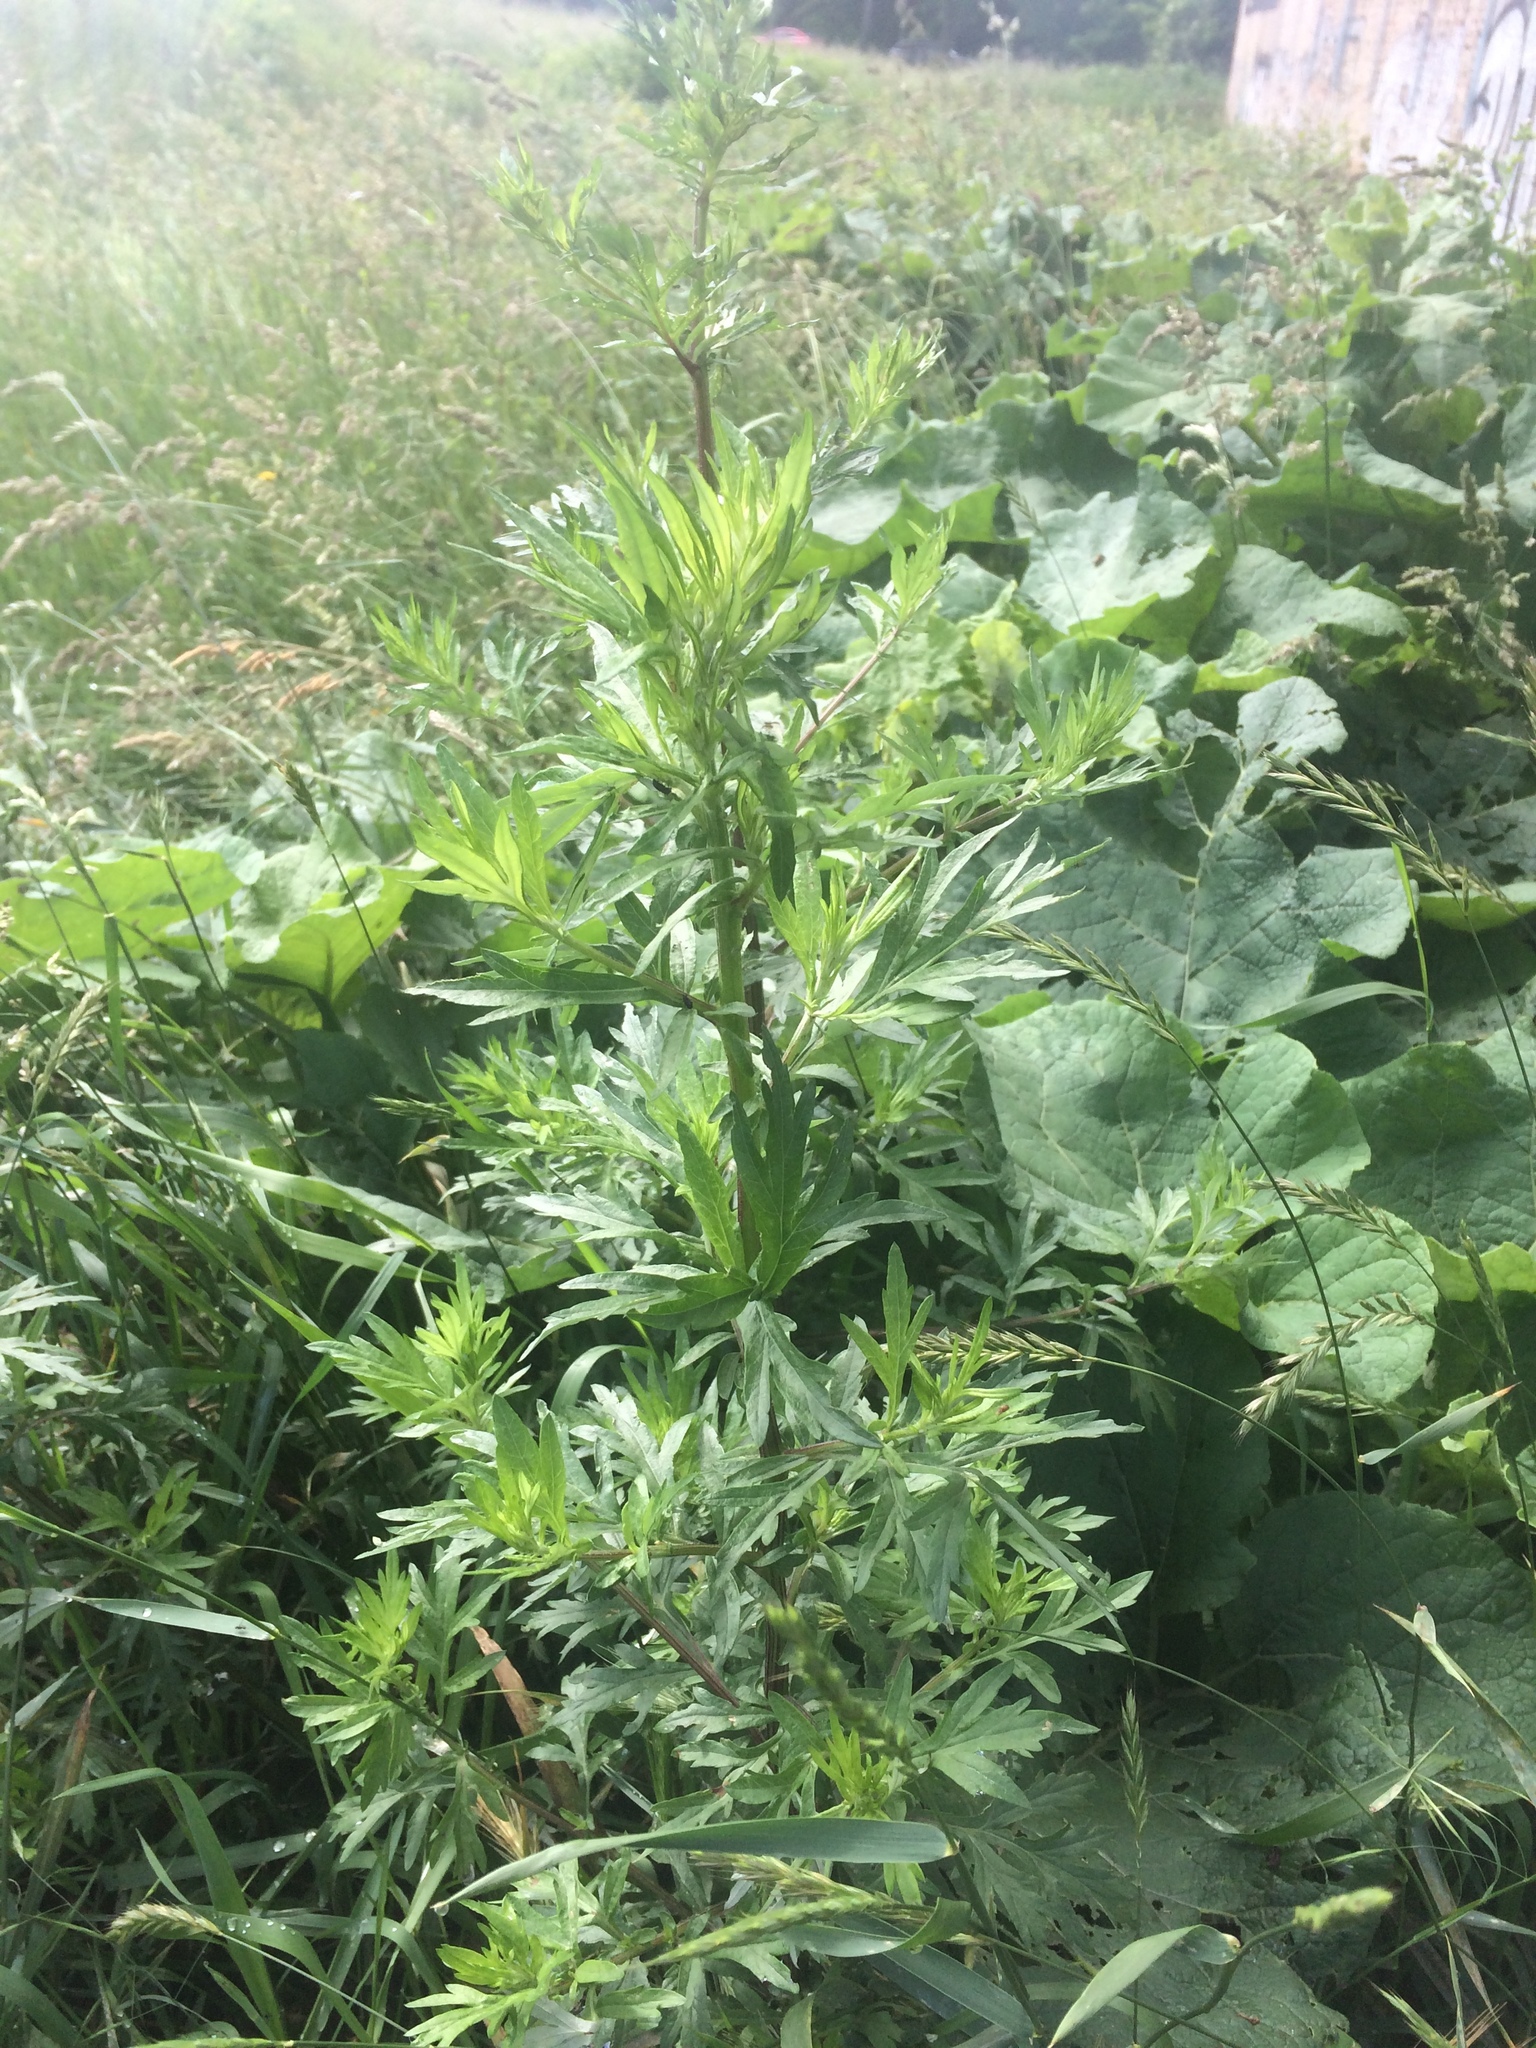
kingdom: Plantae
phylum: Tracheophyta
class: Magnoliopsida
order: Asterales
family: Asteraceae
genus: Artemisia
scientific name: Artemisia vulgaris
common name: Mugwort
